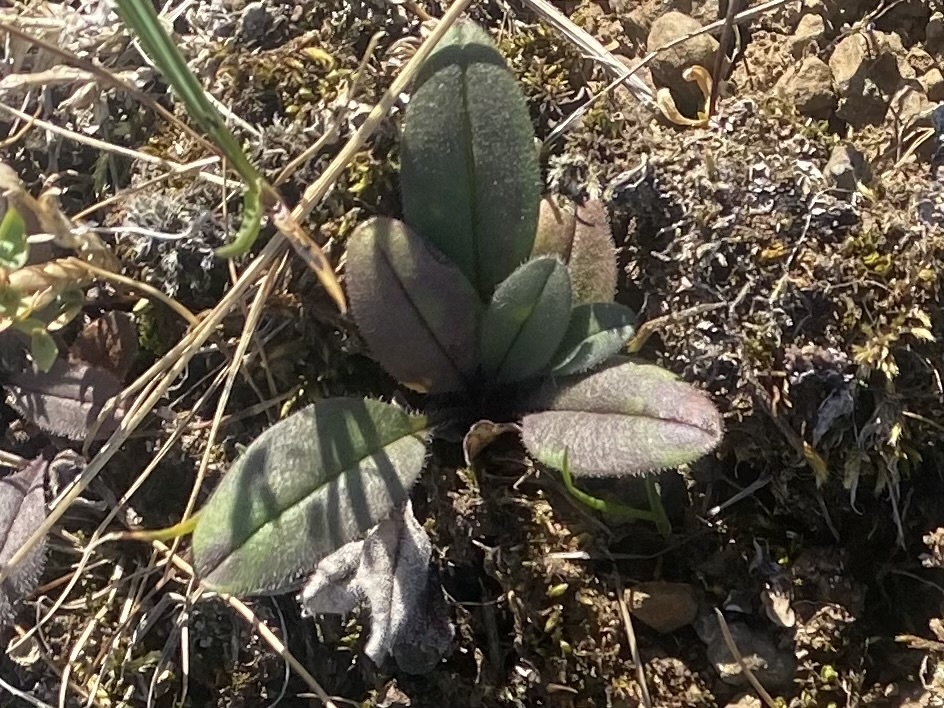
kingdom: Plantae
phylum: Tracheophyta
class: Magnoliopsida
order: Boraginales
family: Boraginaceae
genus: Myosotis
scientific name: Myosotis asiatica
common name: Asian forget-me-not
